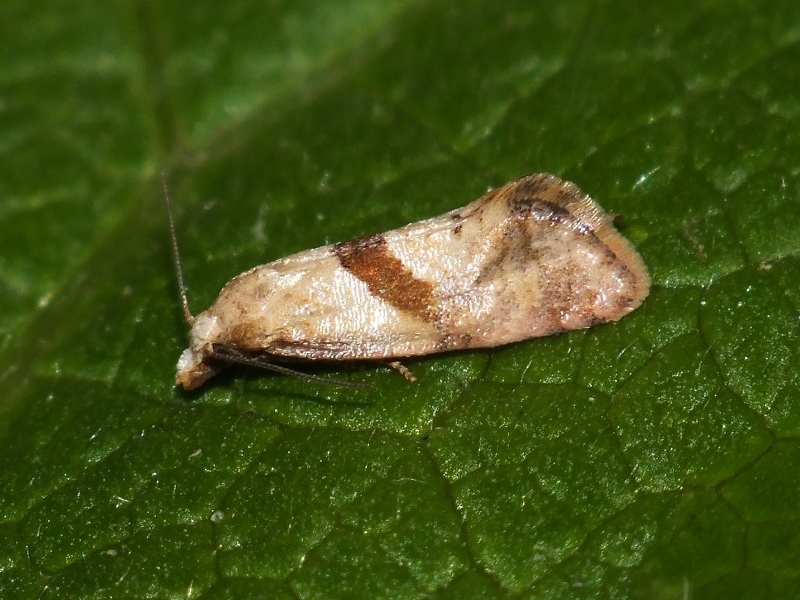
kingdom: Animalia
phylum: Arthropoda
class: Insecta
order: Lepidoptera
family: Tortricidae
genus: Cochylidia
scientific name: Cochylidia implicitana
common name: Chamomile conch
